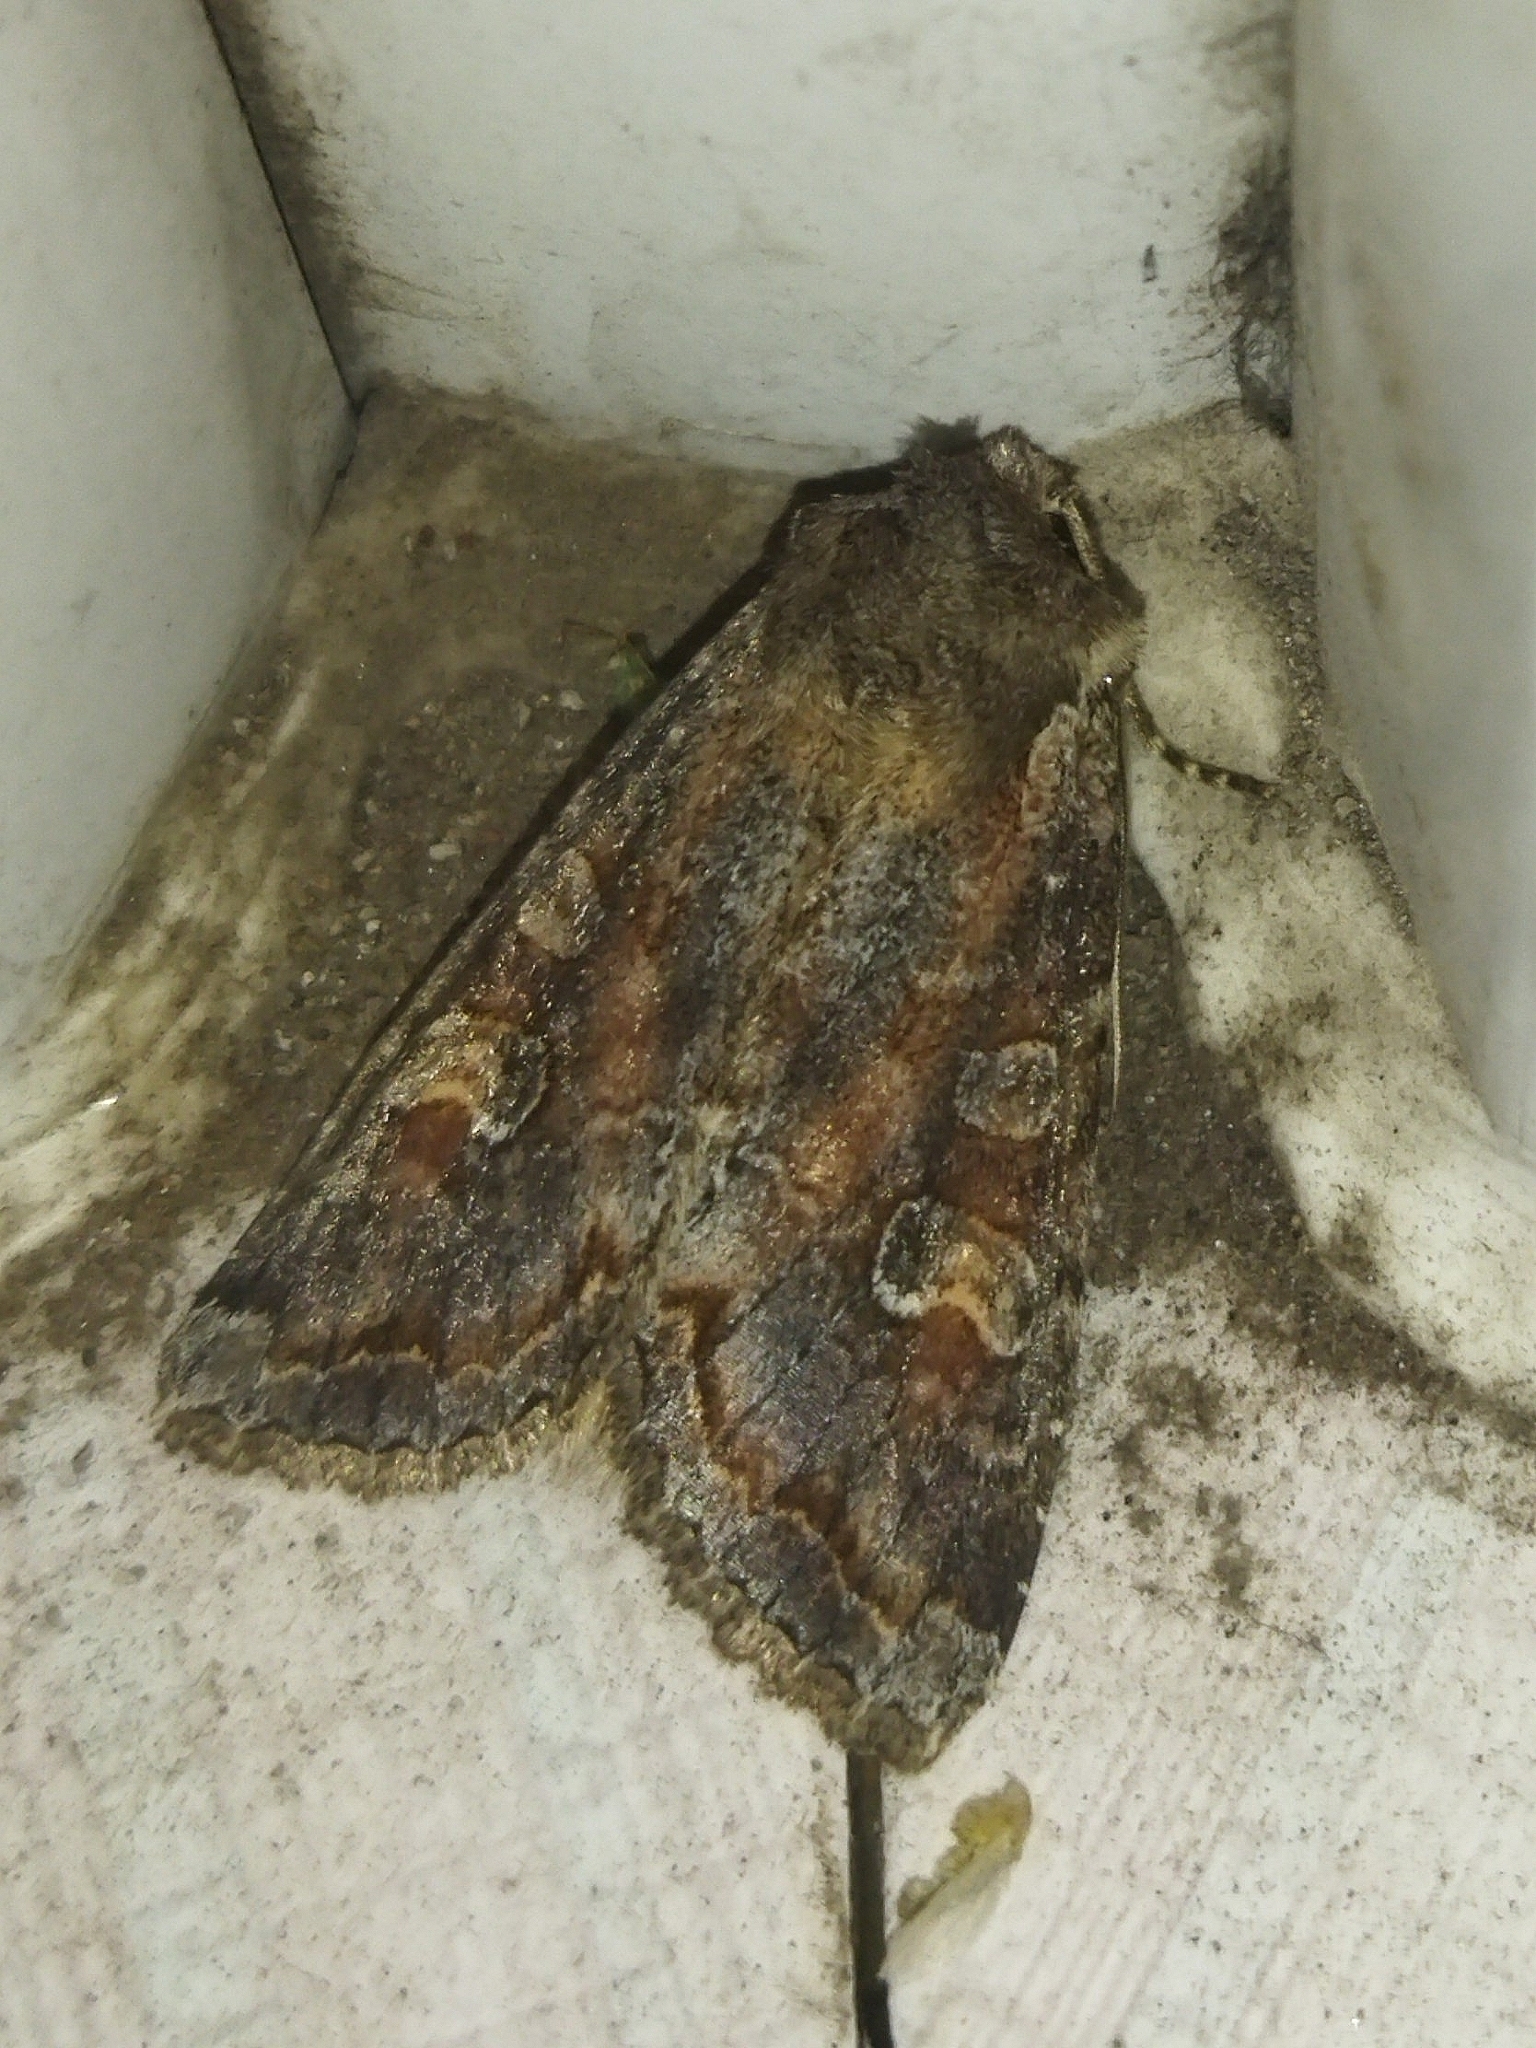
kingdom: Animalia
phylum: Arthropoda
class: Insecta
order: Lepidoptera
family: Noctuidae
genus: Polia
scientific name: Polia bombycina
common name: Pale shining brown
